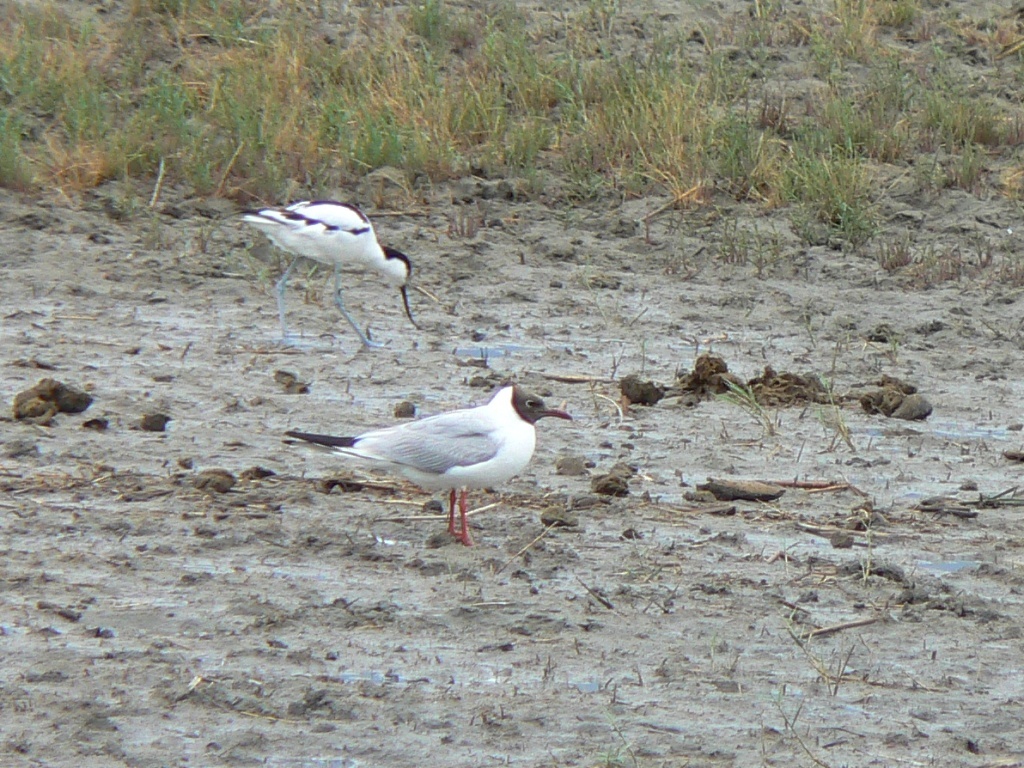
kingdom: Animalia
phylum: Chordata
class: Aves
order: Charadriiformes
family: Laridae
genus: Chroicocephalus
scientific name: Chroicocephalus ridibundus
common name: Black-headed gull
